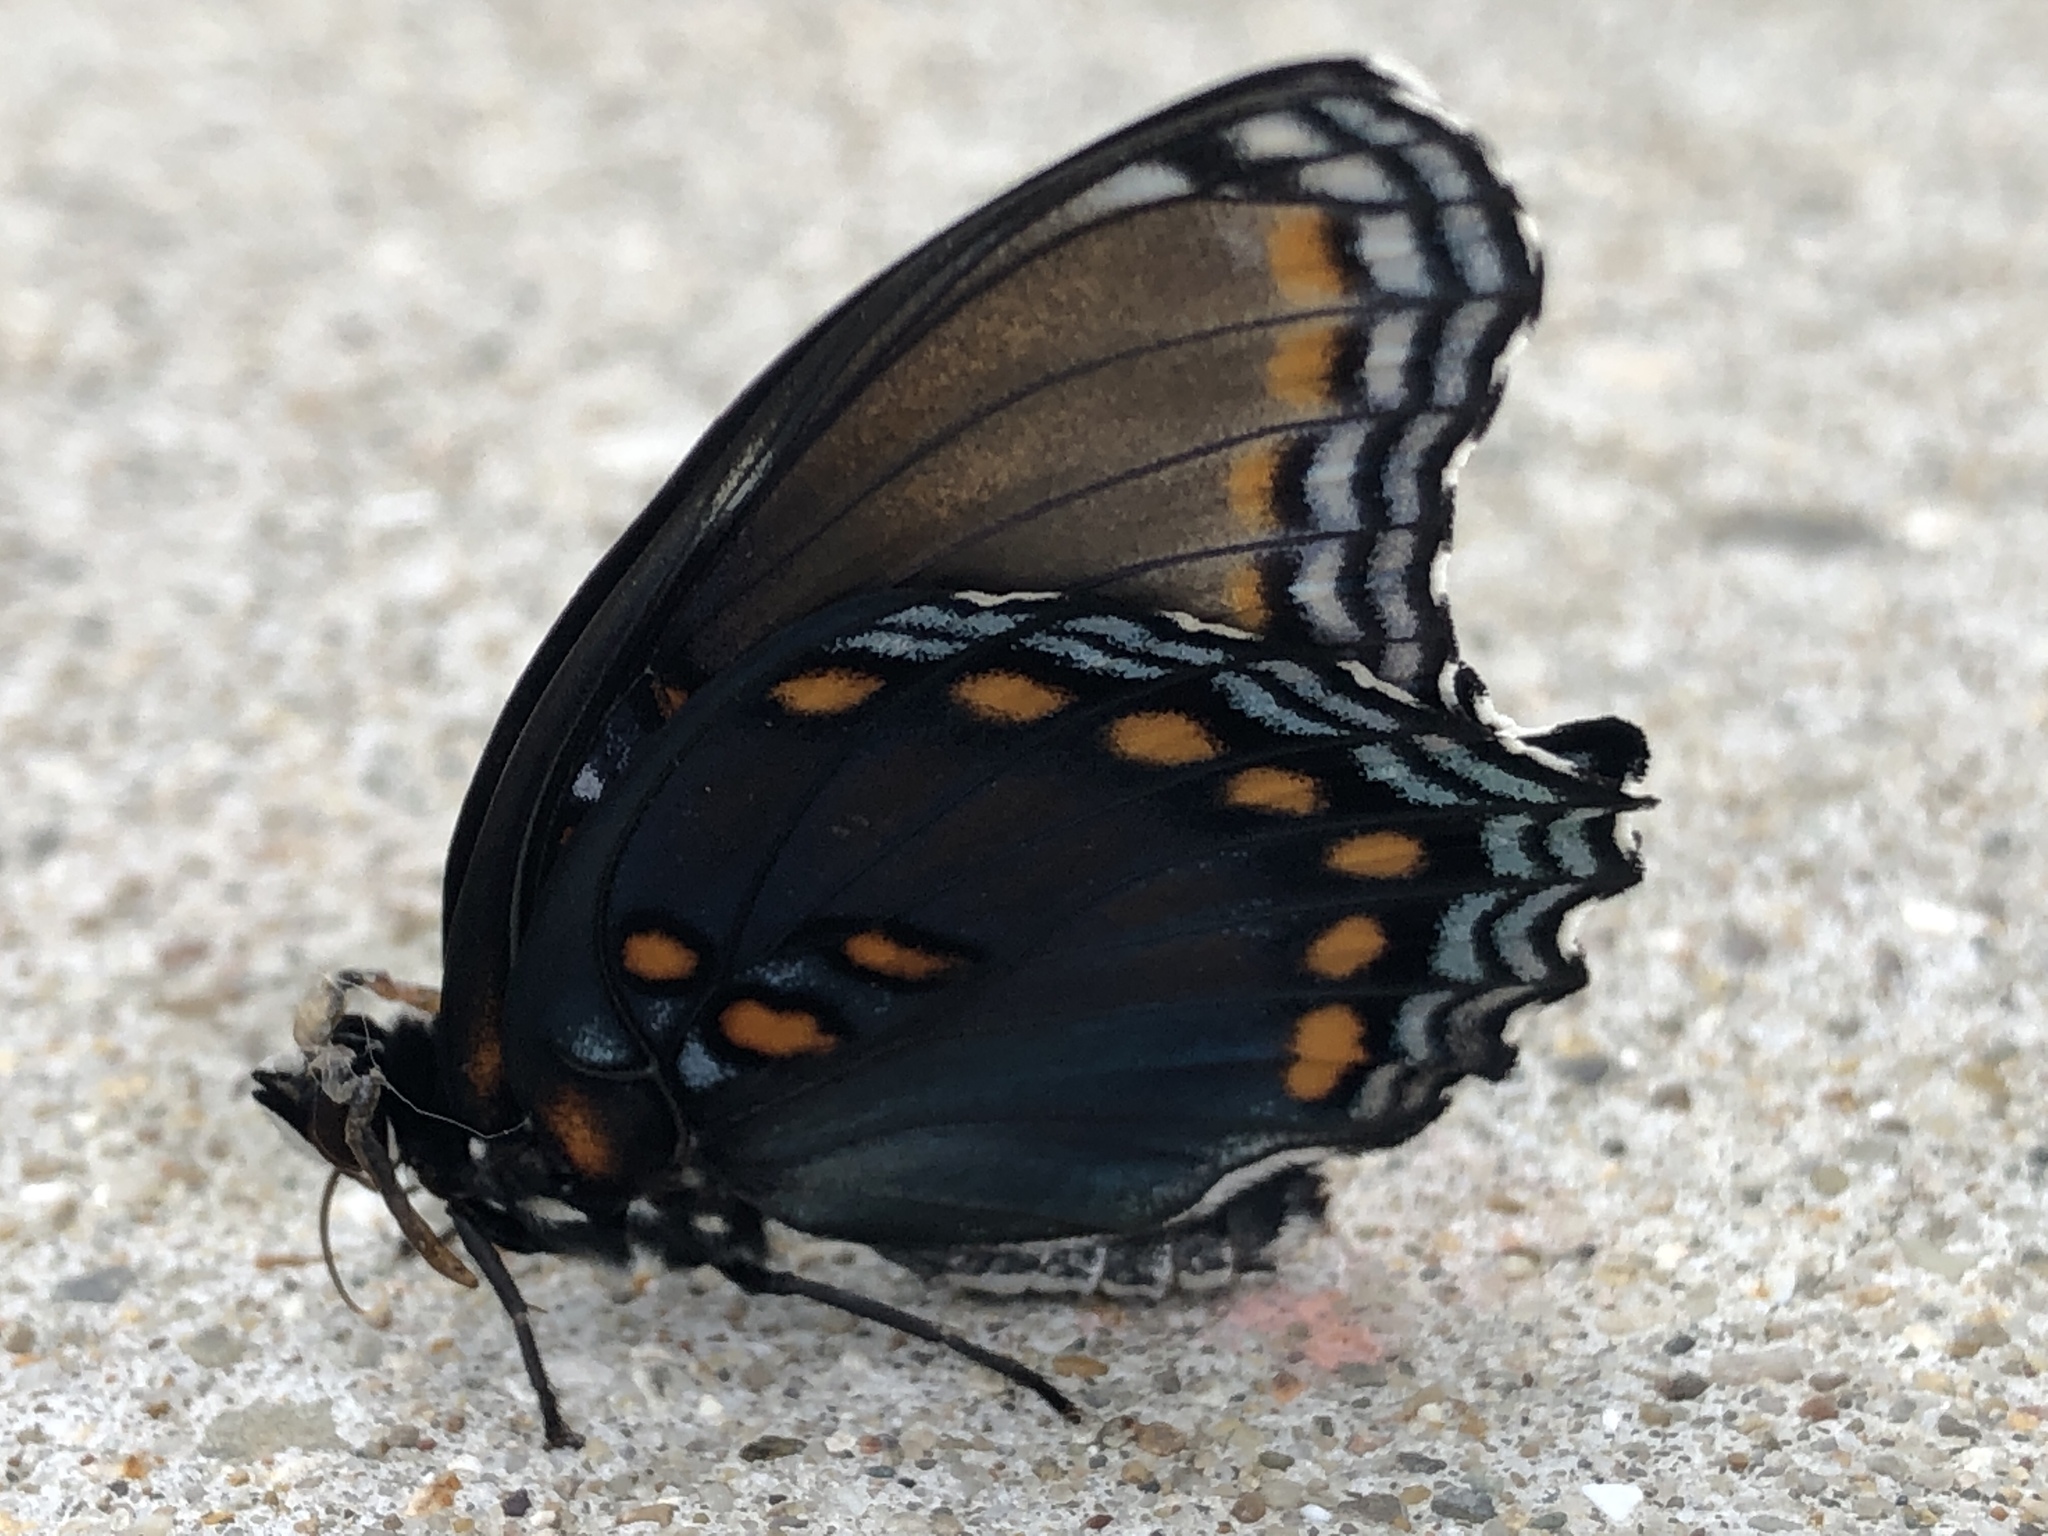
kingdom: Animalia
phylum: Arthropoda
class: Insecta
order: Lepidoptera
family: Nymphalidae
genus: Limenitis
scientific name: Limenitis astyanax
